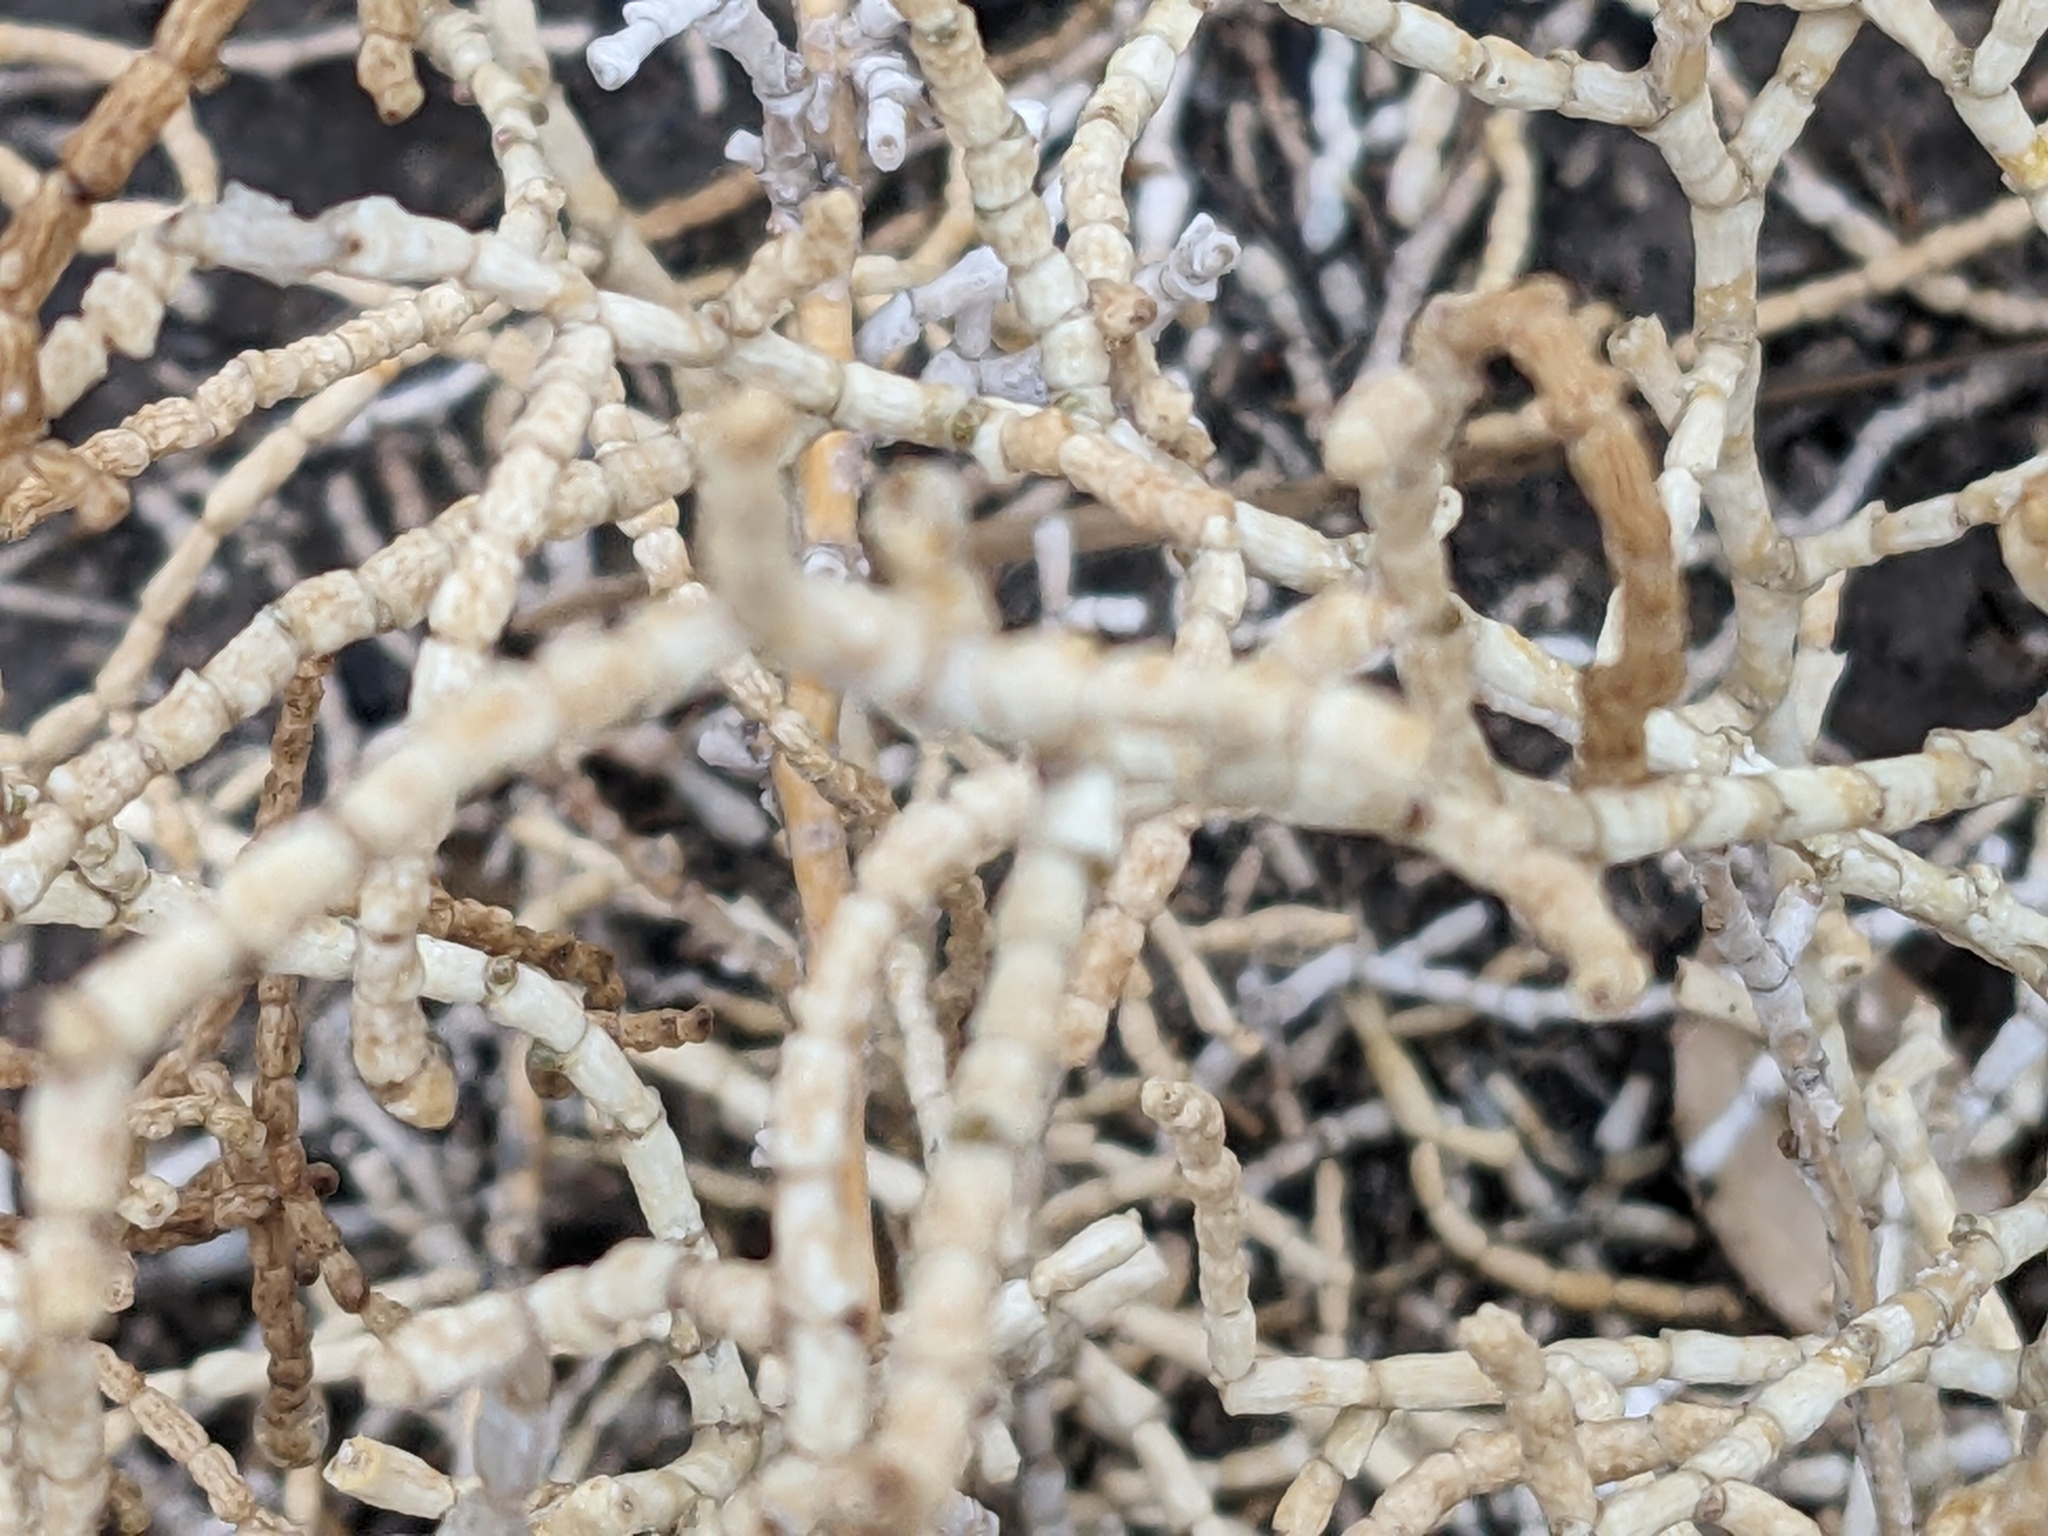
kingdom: Plantae
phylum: Tracheophyta
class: Magnoliopsida
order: Caryophyllales
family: Amaranthaceae
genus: Allenrolfea
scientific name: Allenrolfea occidentalis
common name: Iodine-bush
